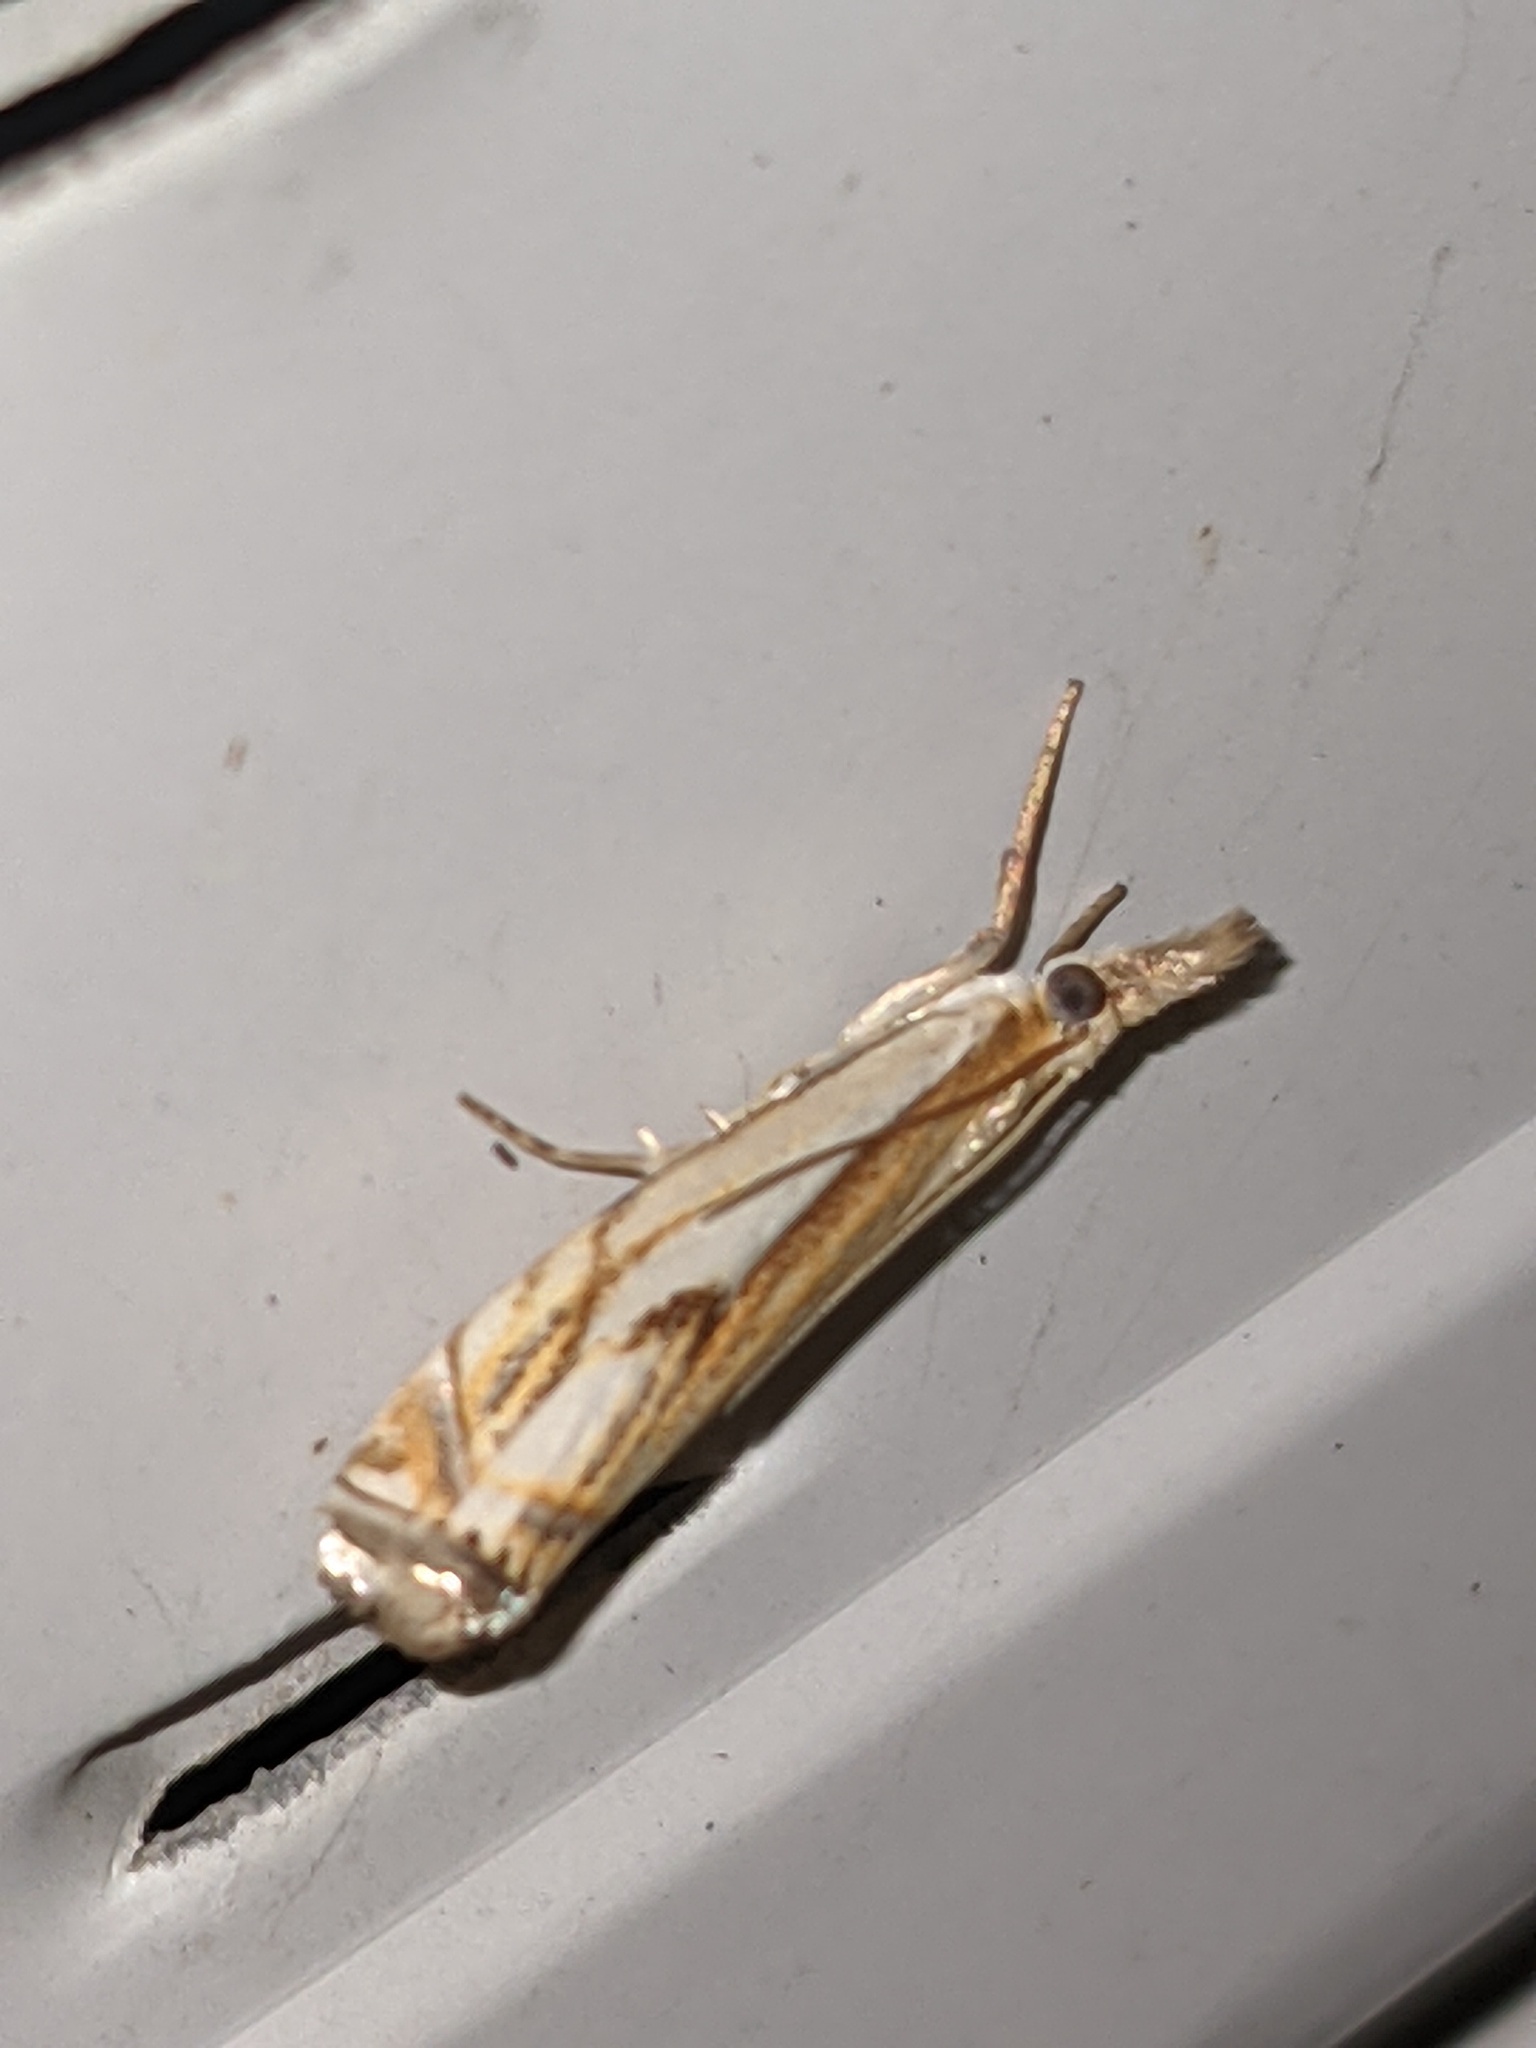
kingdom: Animalia
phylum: Arthropoda
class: Insecta
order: Lepidoptera
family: Crambidae
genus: Crambus
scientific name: Crambus agitatellus
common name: Double-banded grass-veneer
